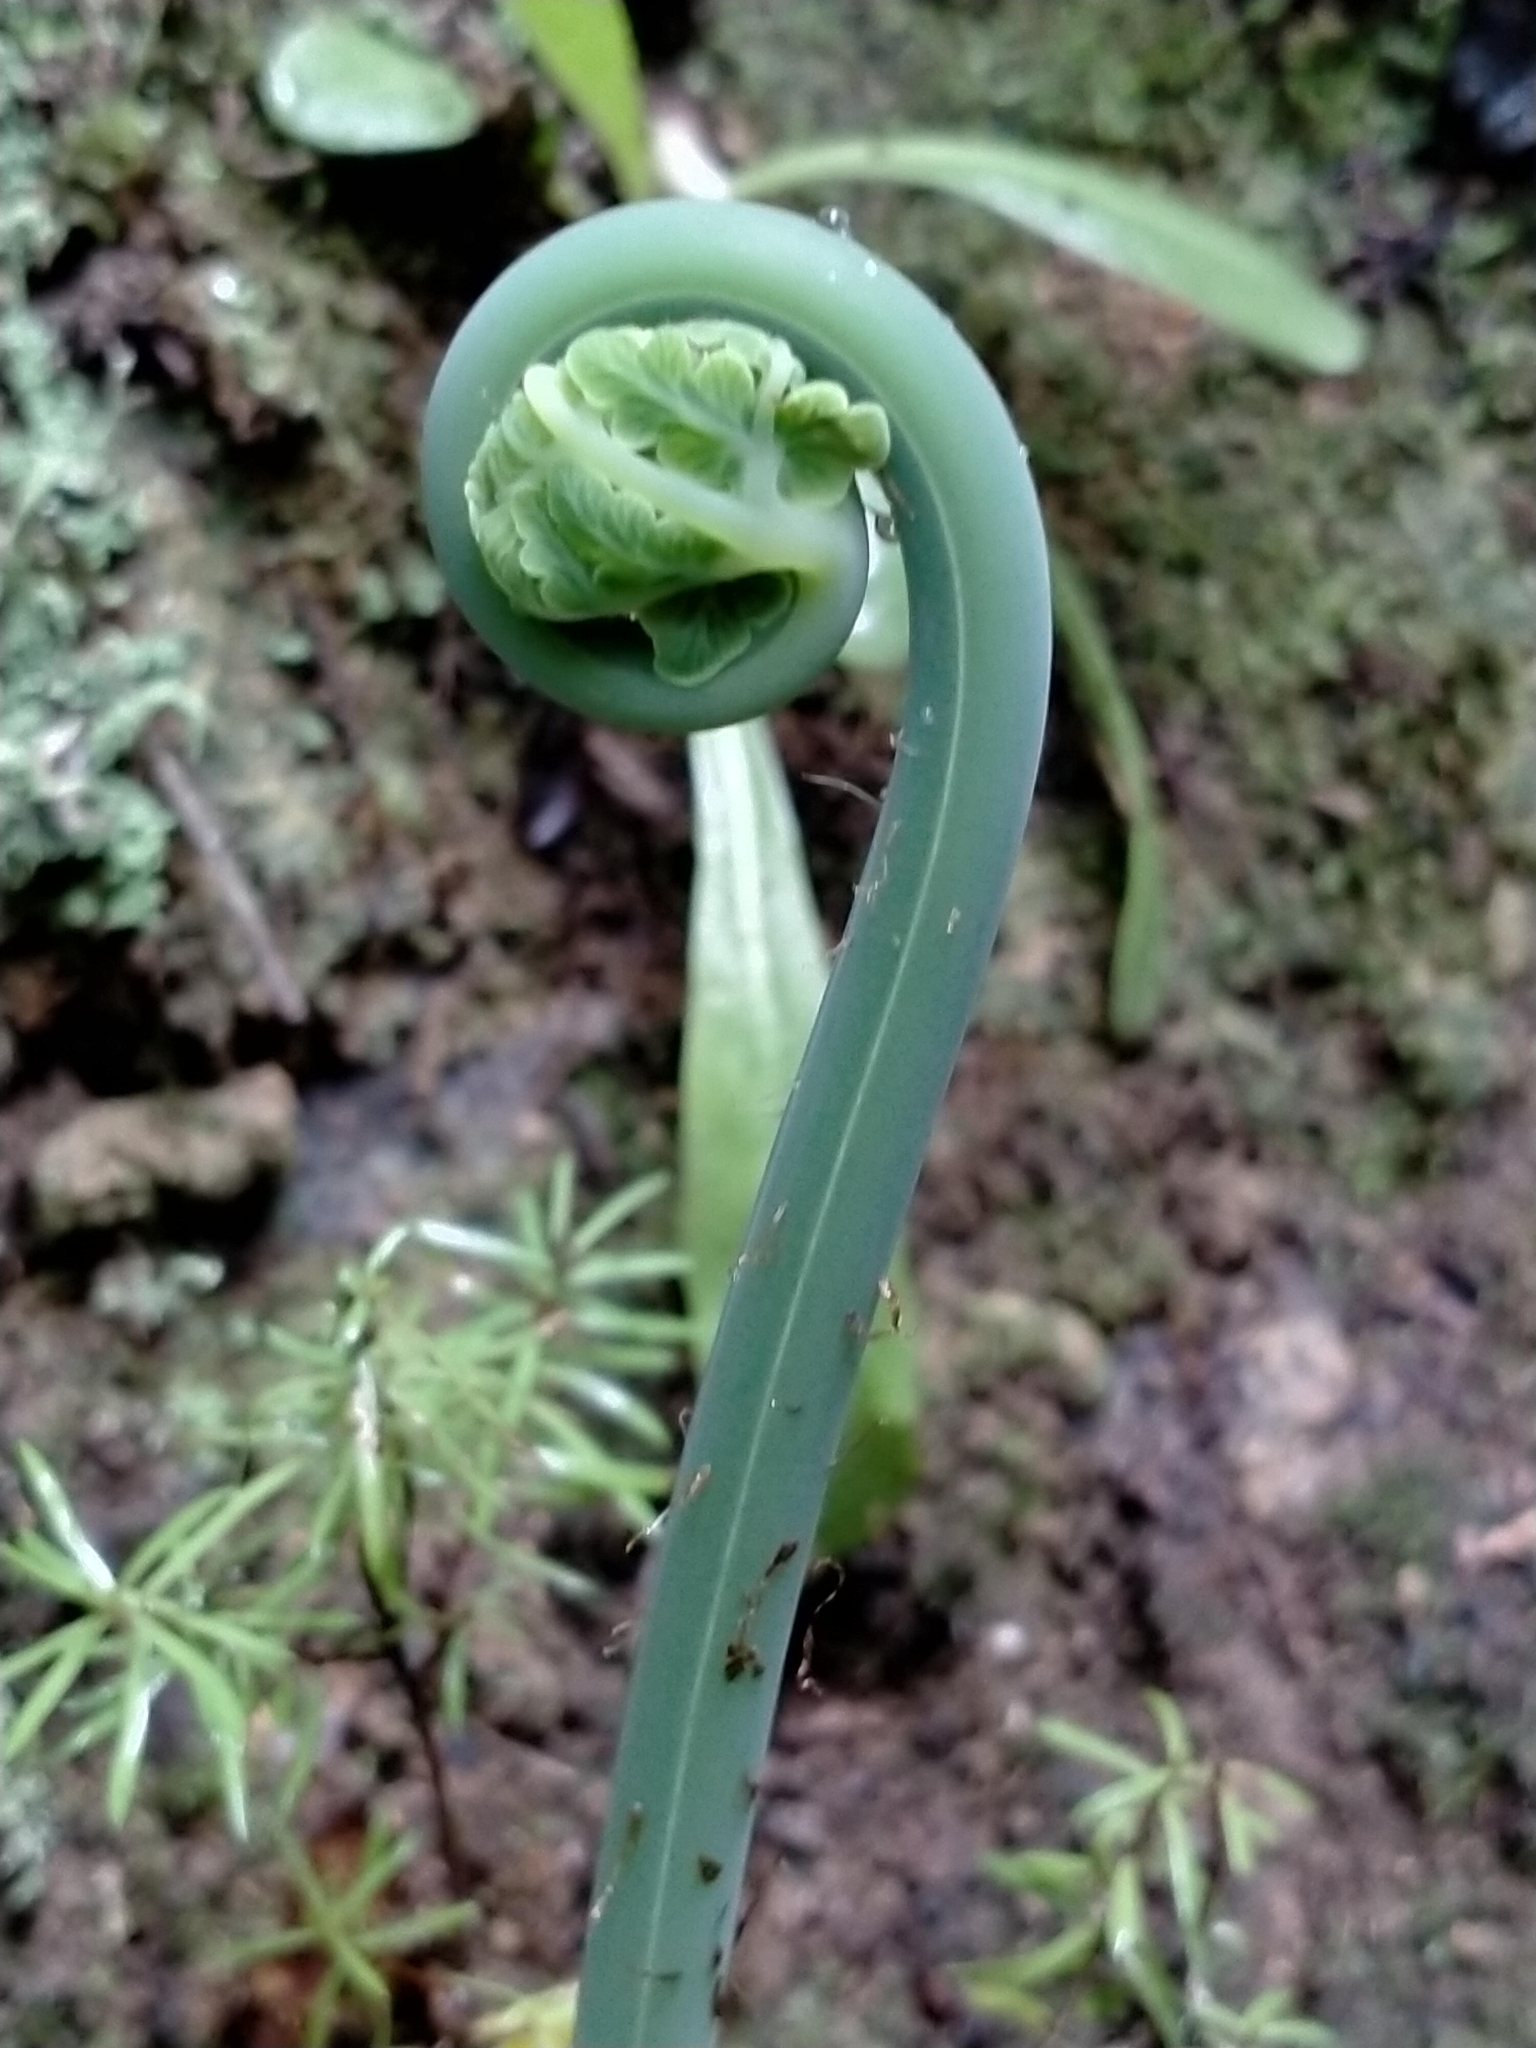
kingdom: Plantae
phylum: Tracheophyta
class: Polypodiopsida
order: Polypodiales
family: Dennstaedtiaceae
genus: Histiopteris
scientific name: Histiopteris incisa
